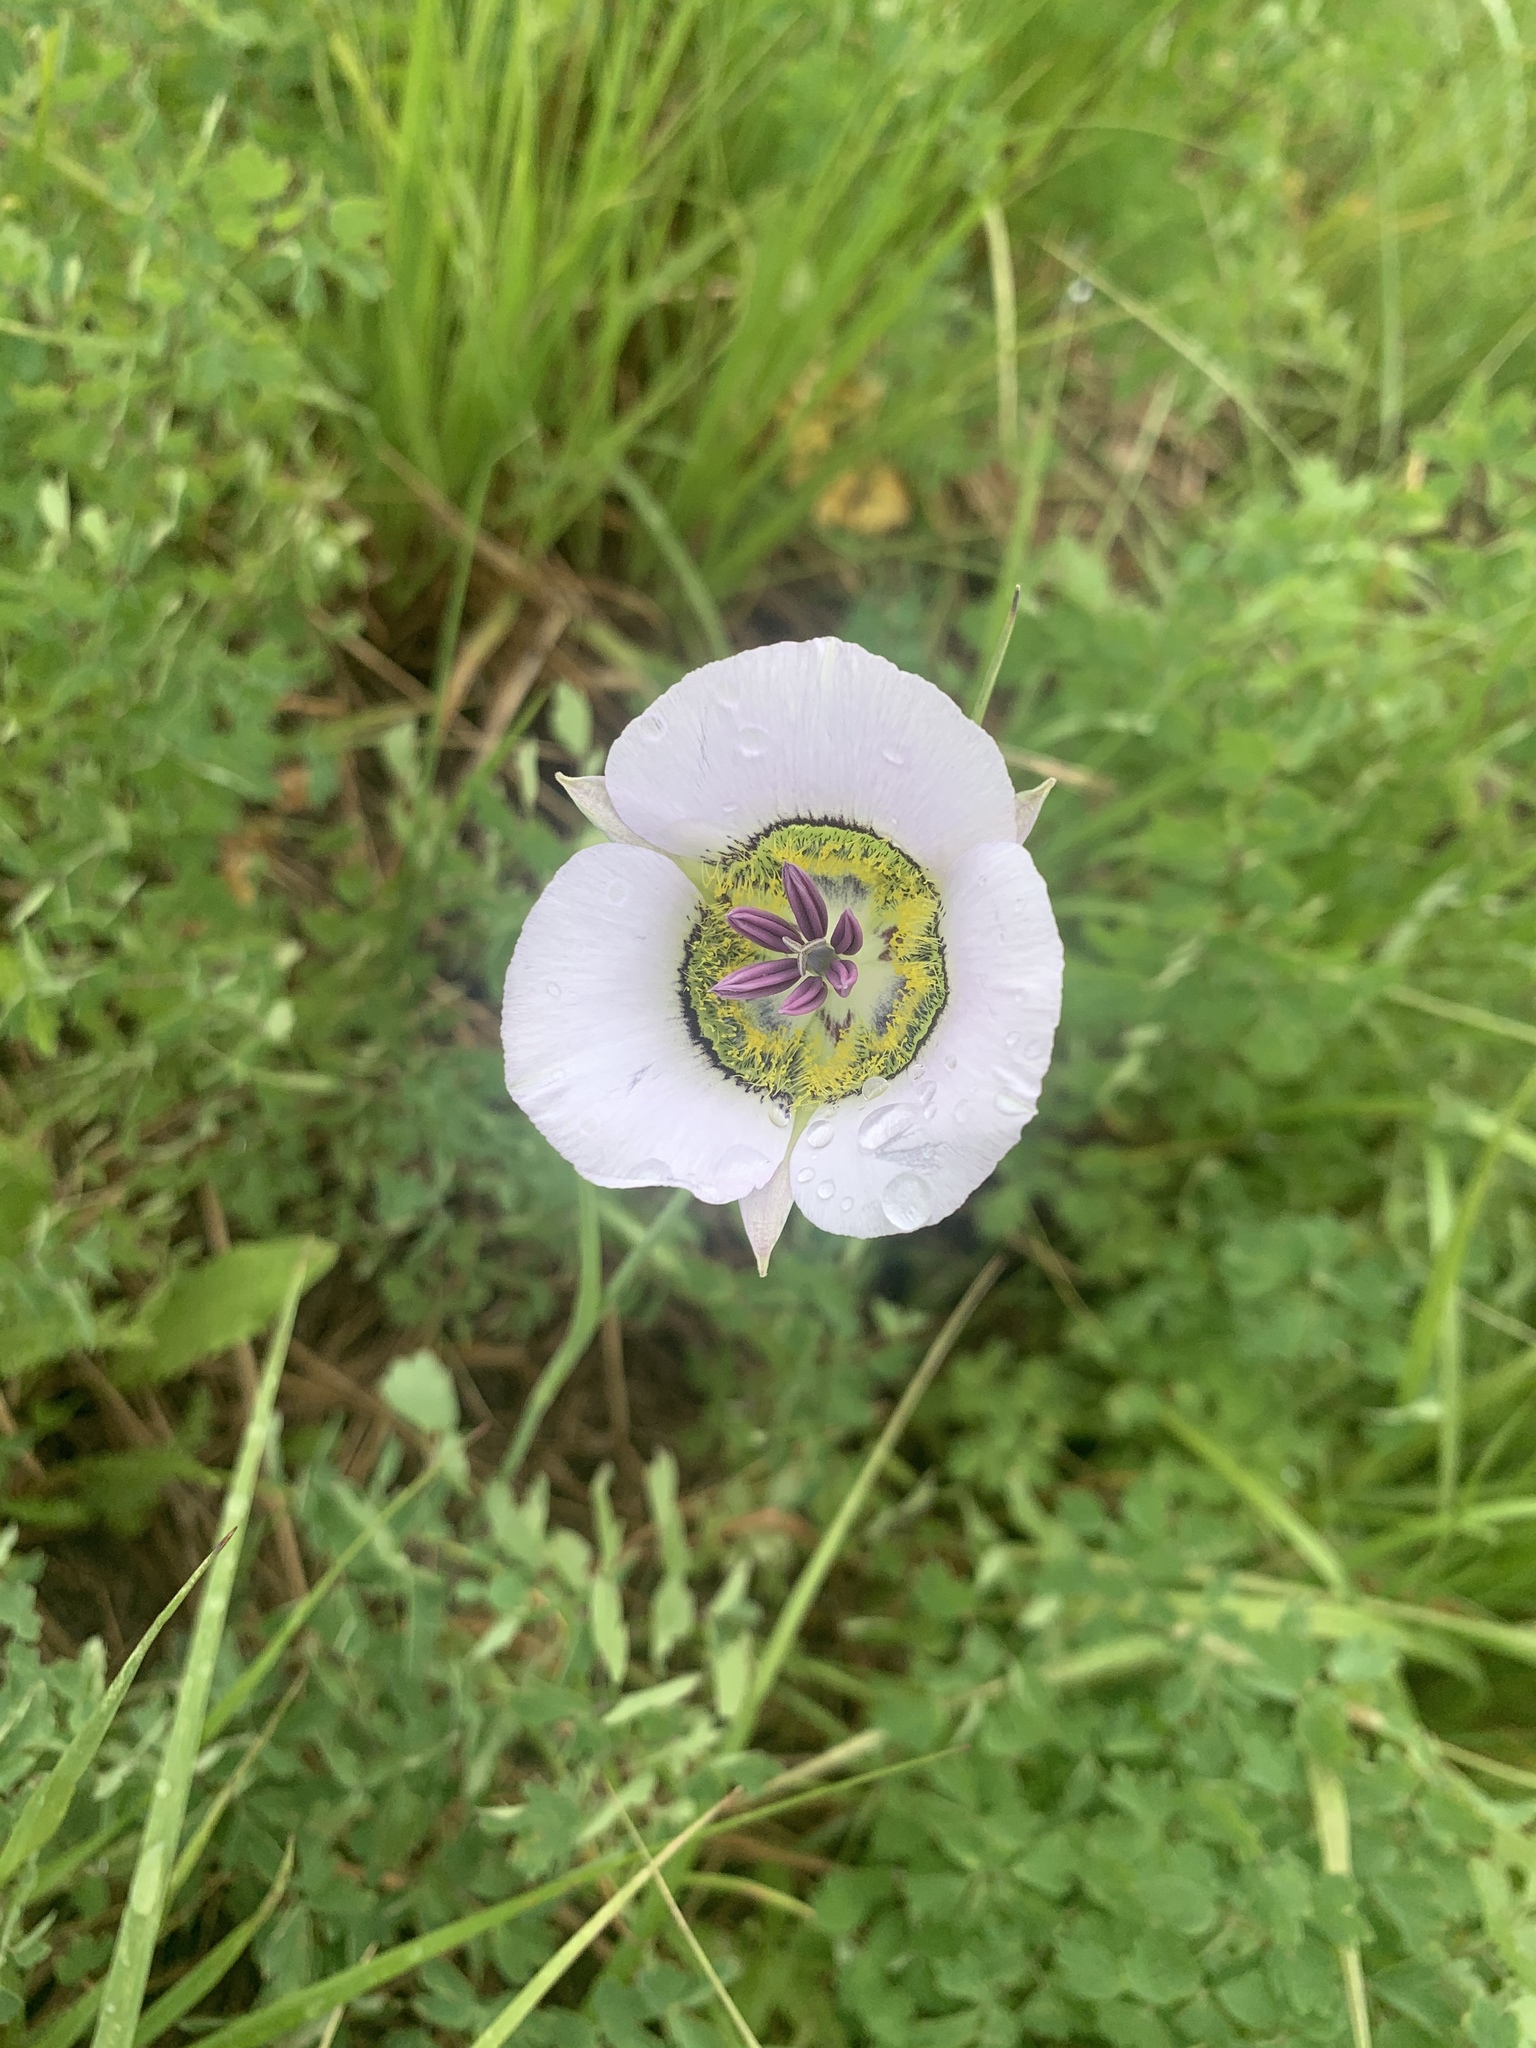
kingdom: Plantae
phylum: Tracheophyta
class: Liliopsida
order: Liliales
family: Liliaceae
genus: Calochortus
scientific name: Calochortus gunnisonii
